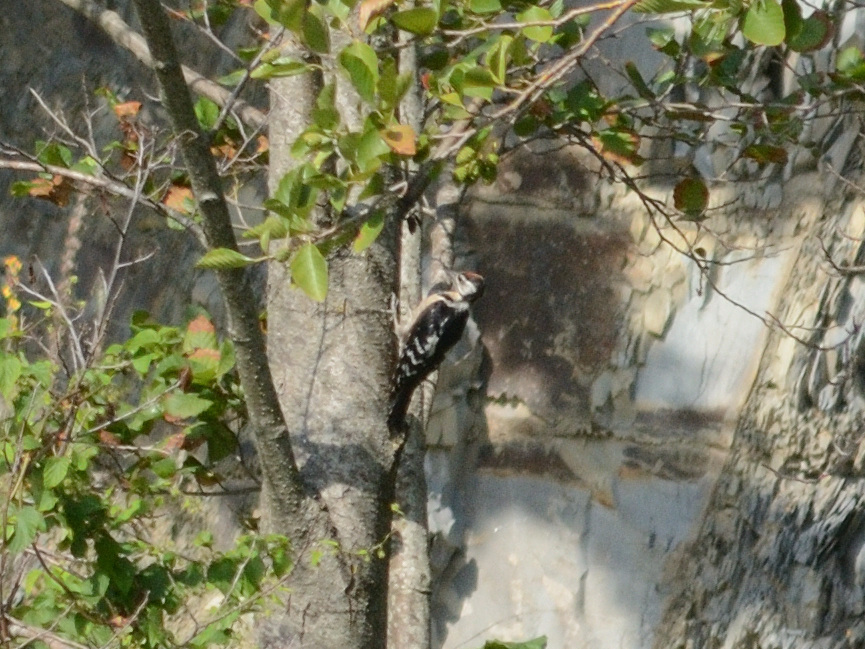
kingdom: Animalia
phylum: Chordata
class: Aves
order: Piciformes
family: Picidae
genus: Dendrocopos
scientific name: Dendrocopos major
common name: Great spotted woodpecker
